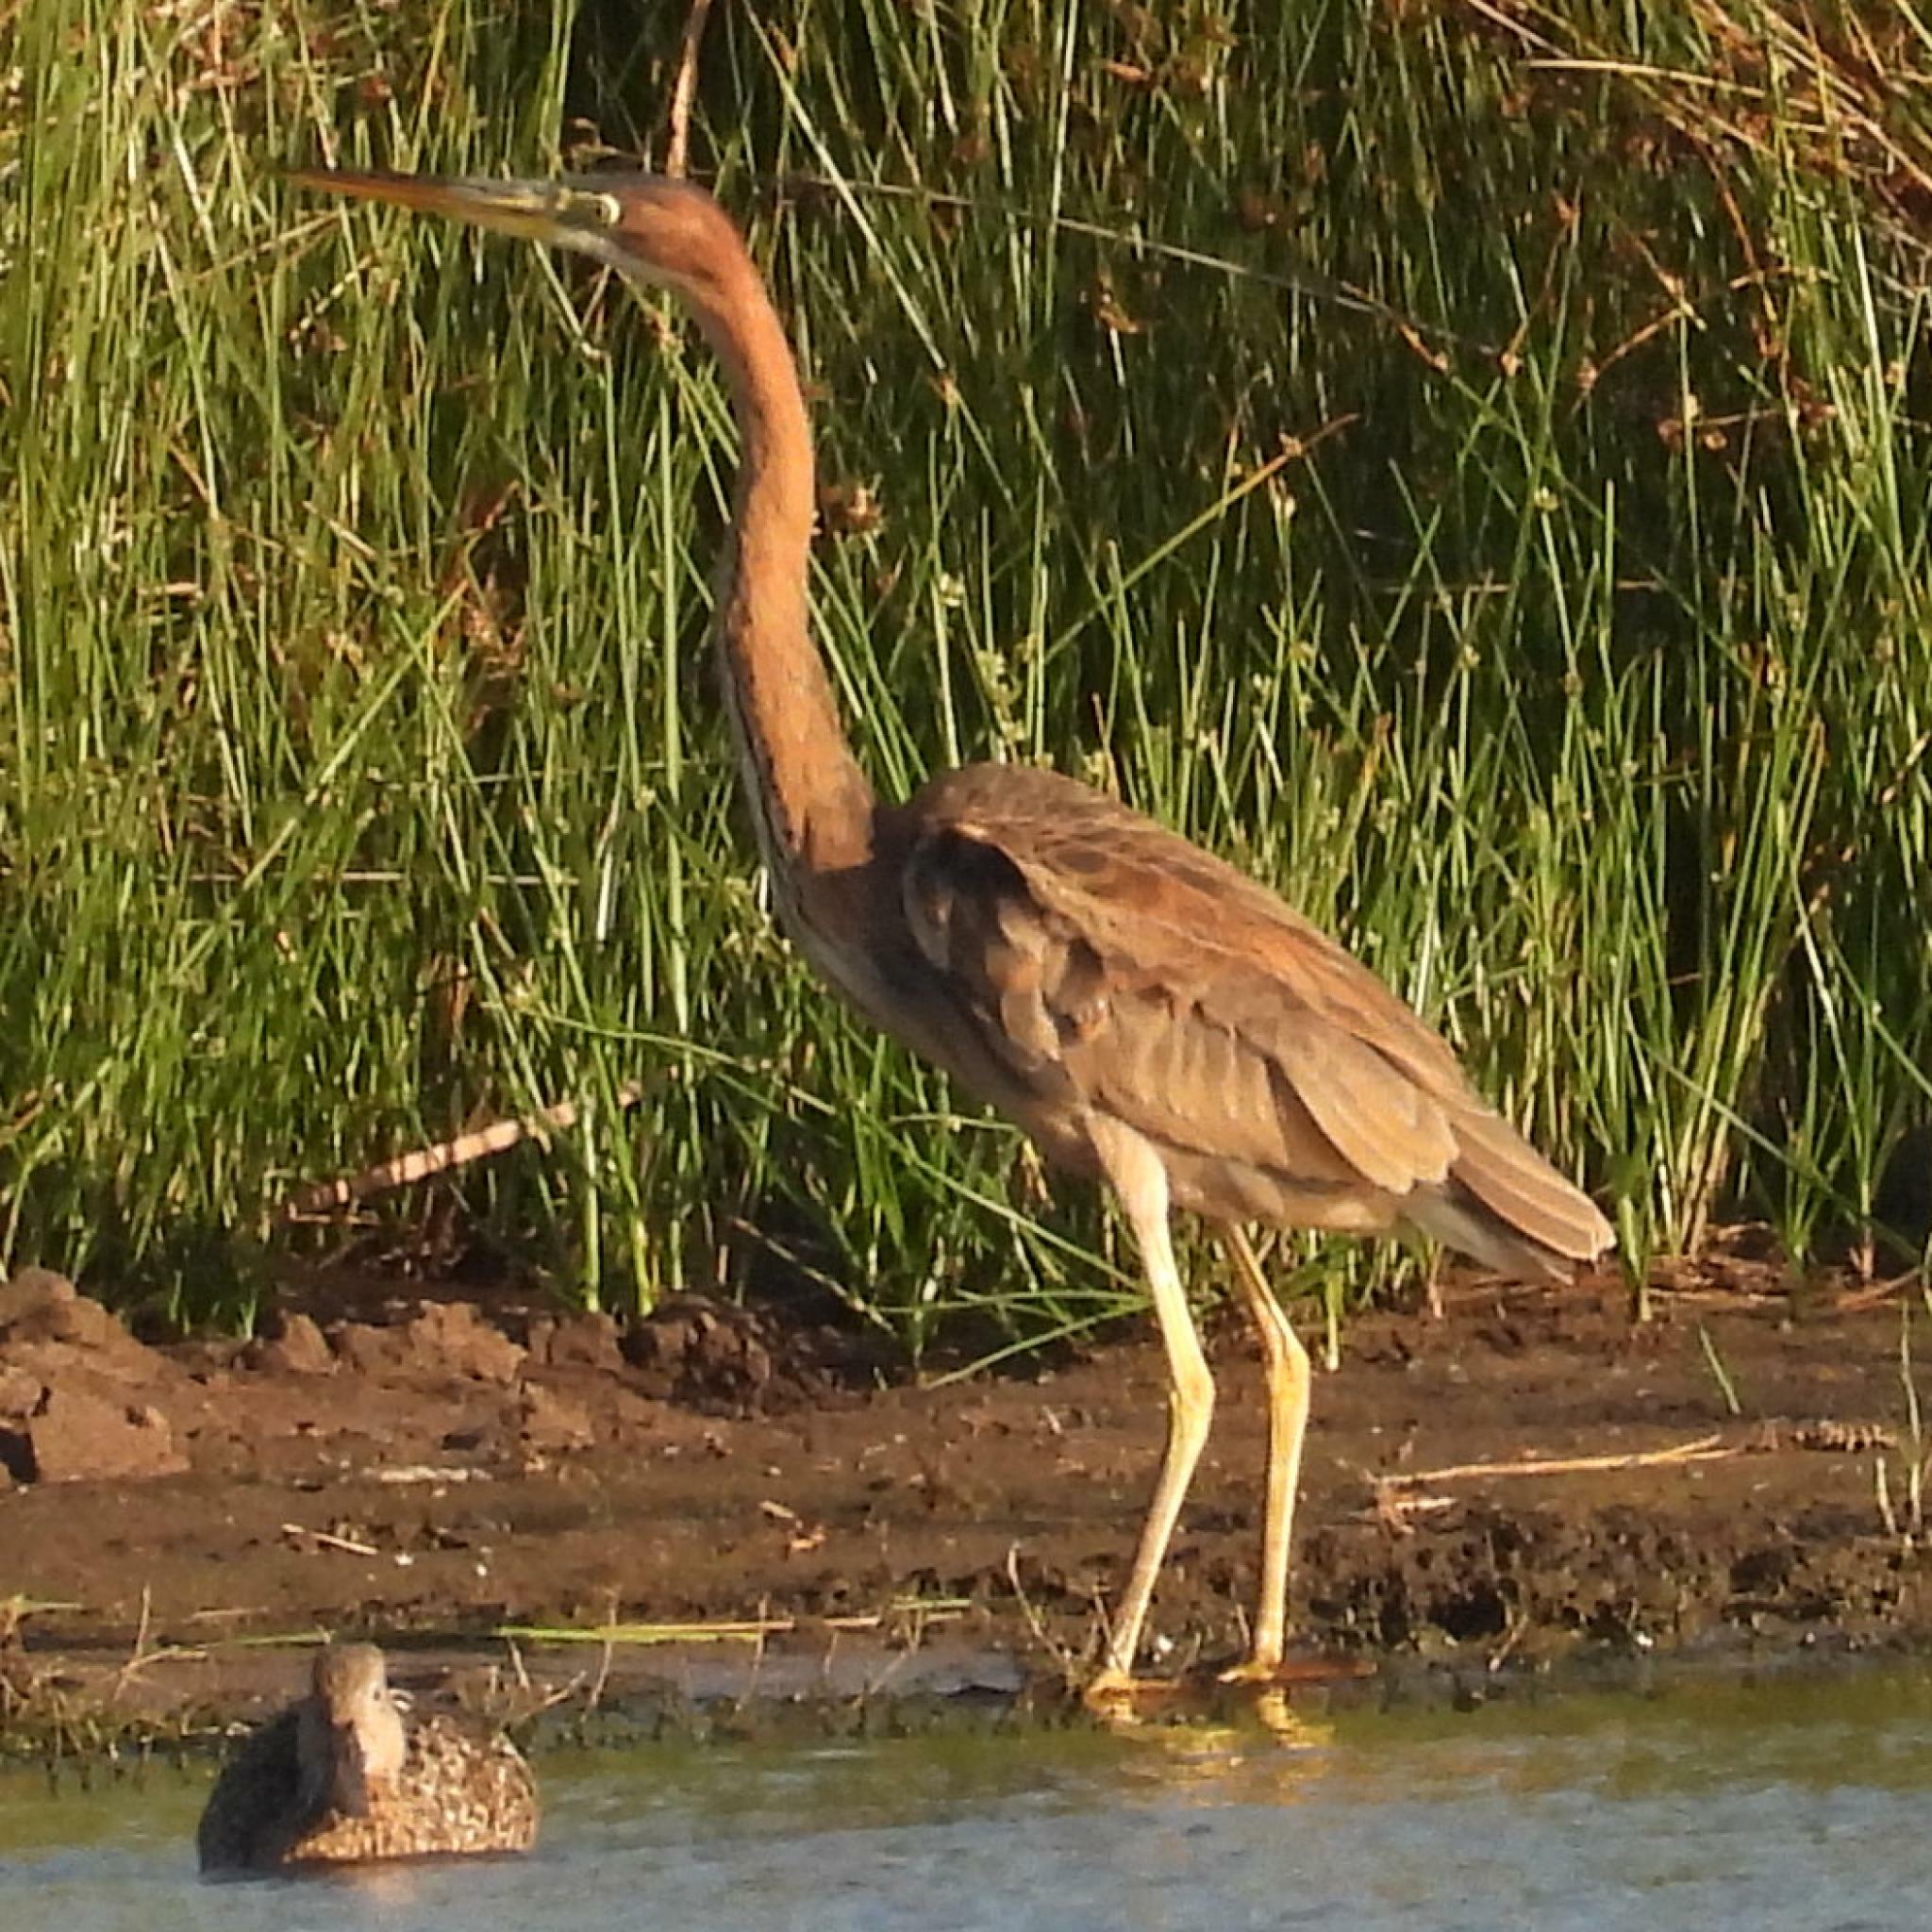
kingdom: Animalia
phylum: Chordata
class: Aves
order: Pelecaniformes
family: Ardeidae
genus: Ardea
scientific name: Ardea purpurea
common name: Purple heron
